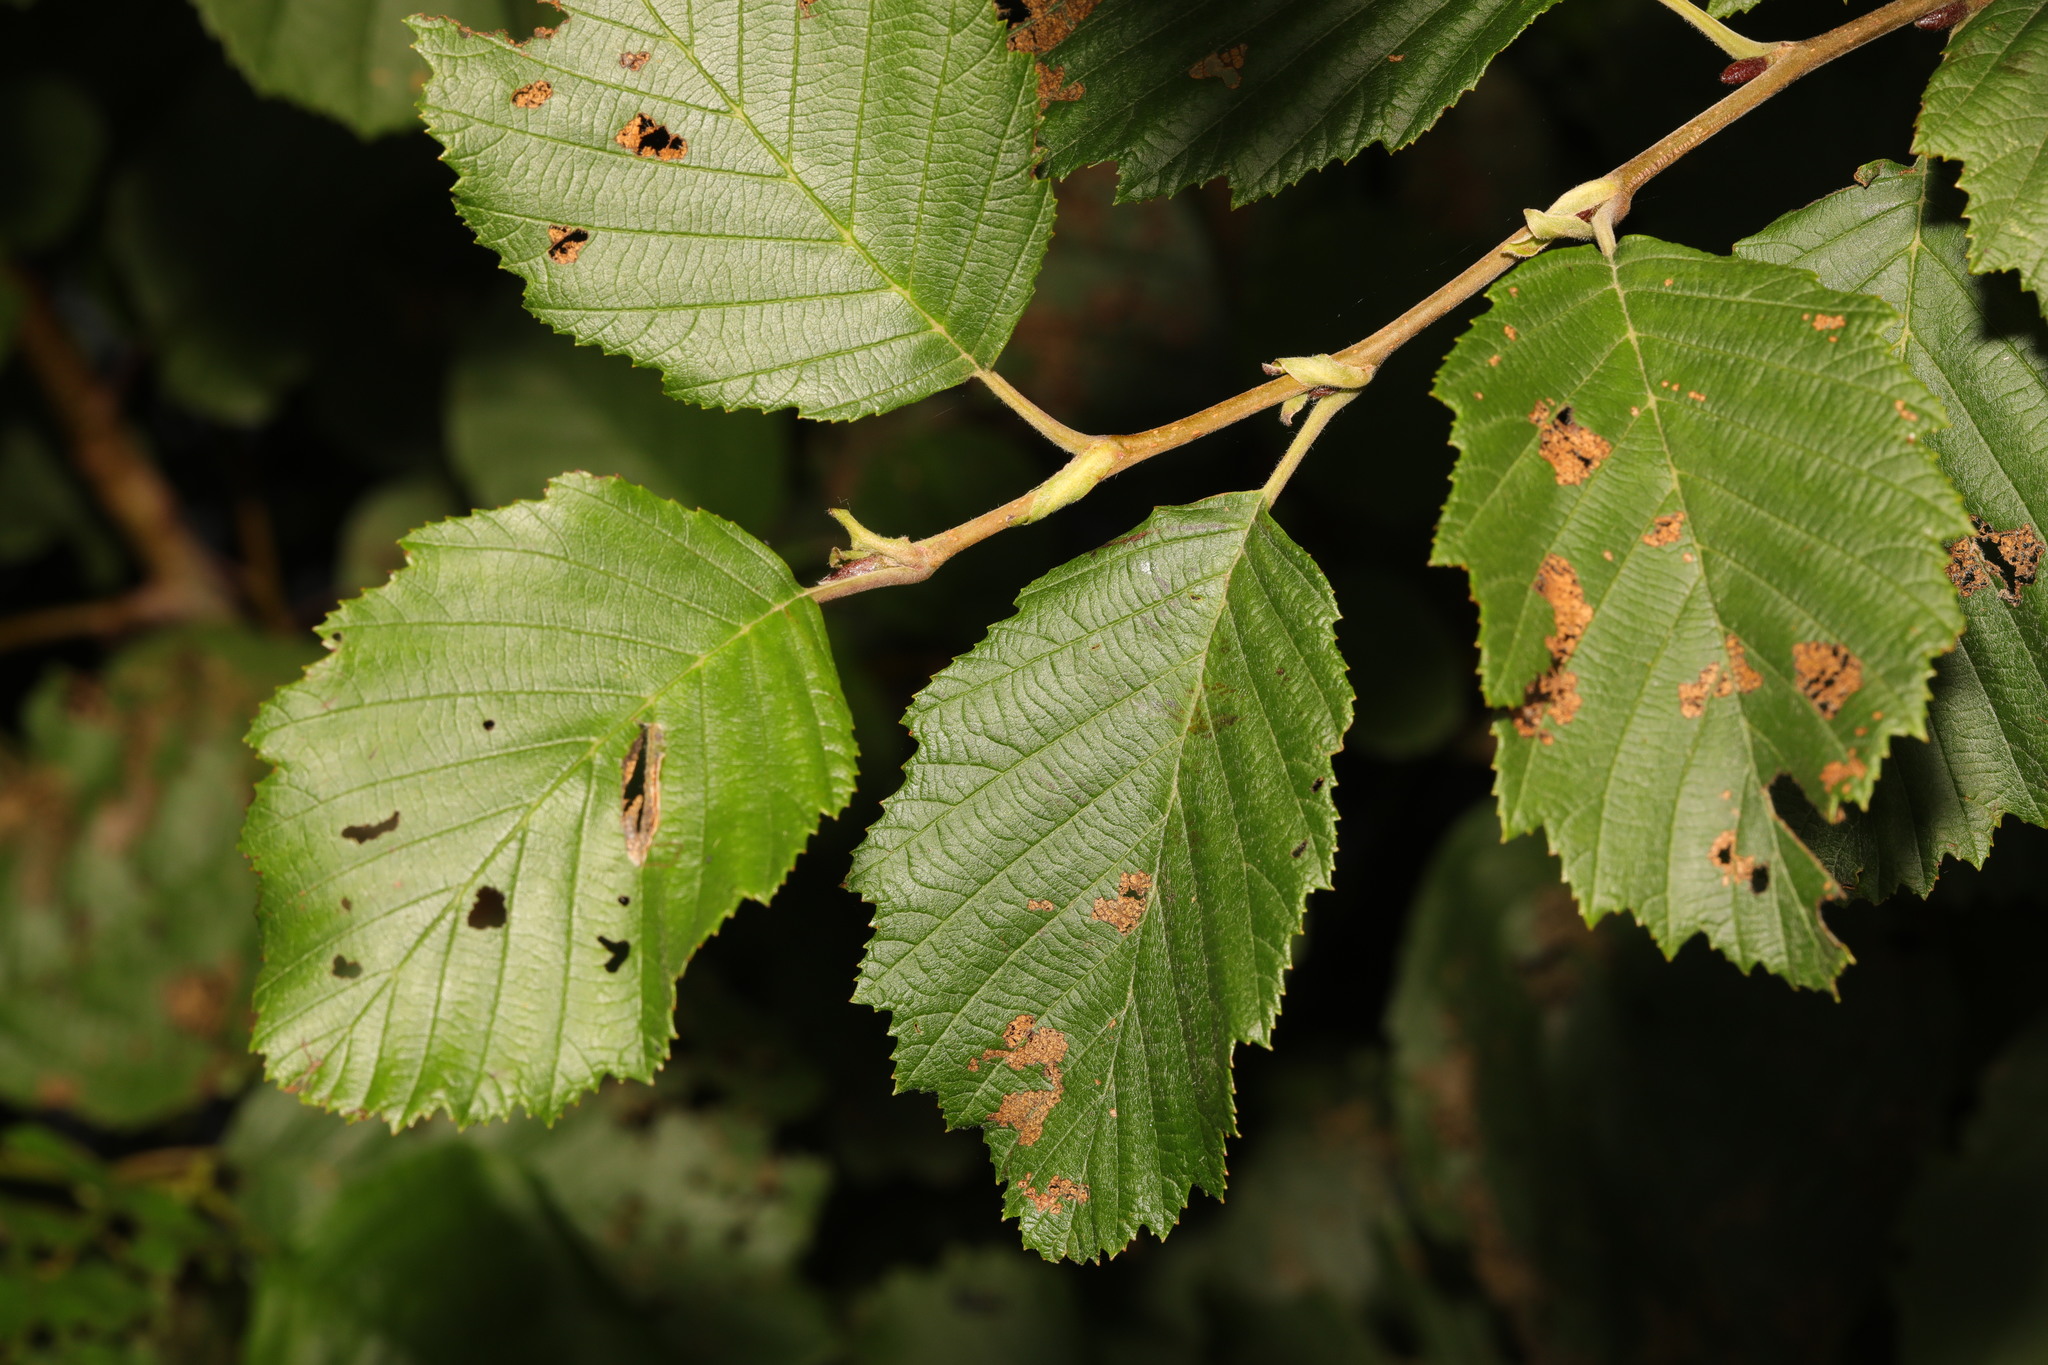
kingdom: Plantae
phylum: Tracheophyta
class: Magnoliopsida
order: Fagales
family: Betulaceae
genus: Alnus
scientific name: Alnus incana
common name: Grey alder
